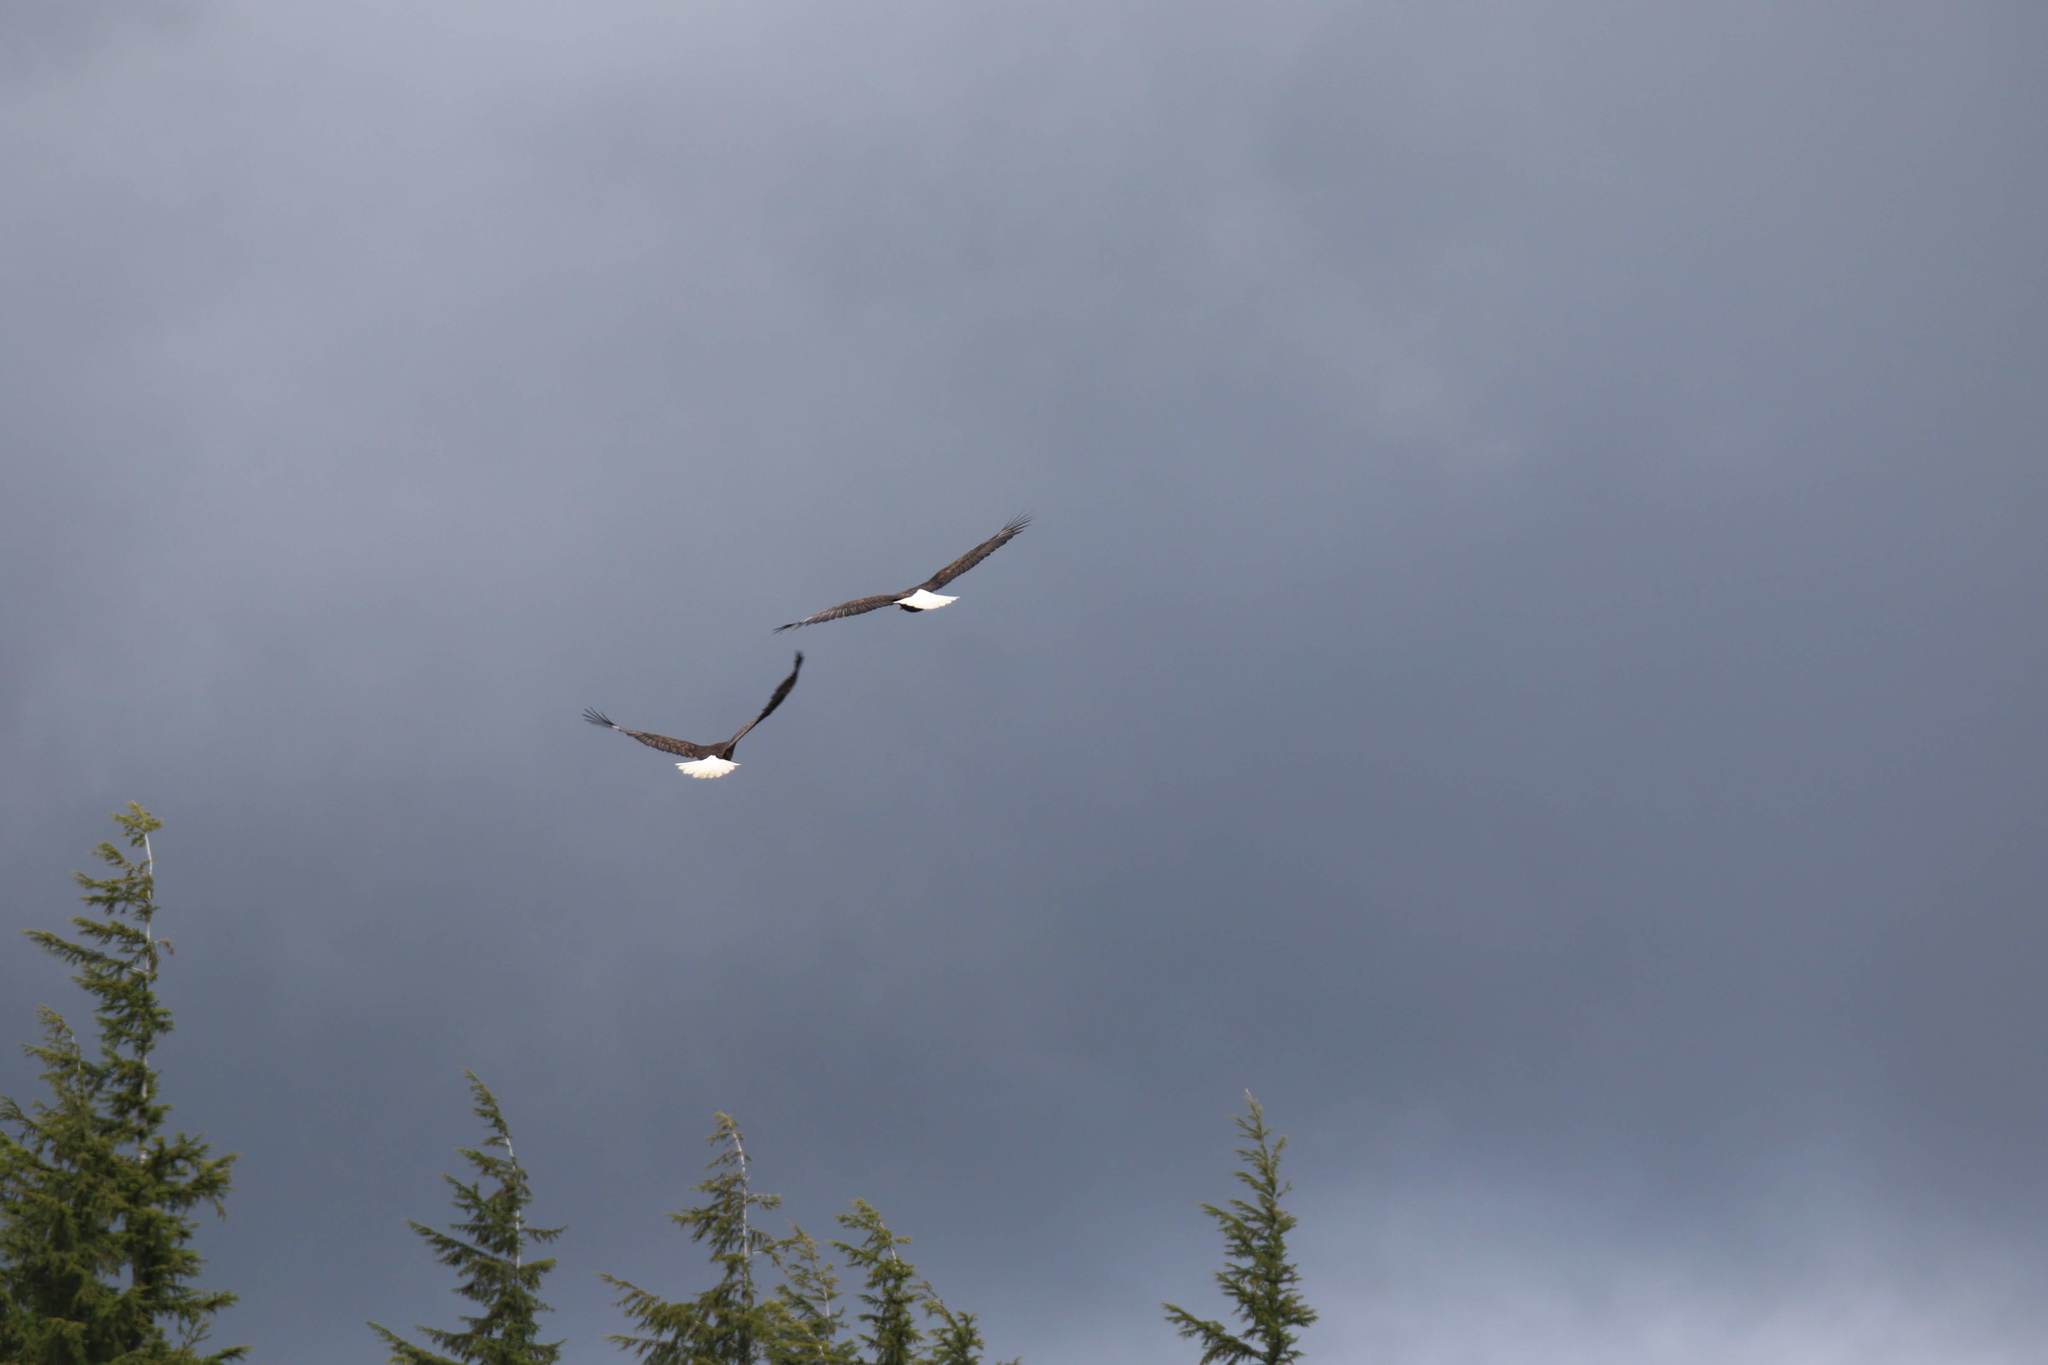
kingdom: Animalia
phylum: Chordata
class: Aves
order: Accipitriformes
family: Accipitridae
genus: Haliaeetus
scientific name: Haliaeetus leucocephalus
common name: Bald eagle
